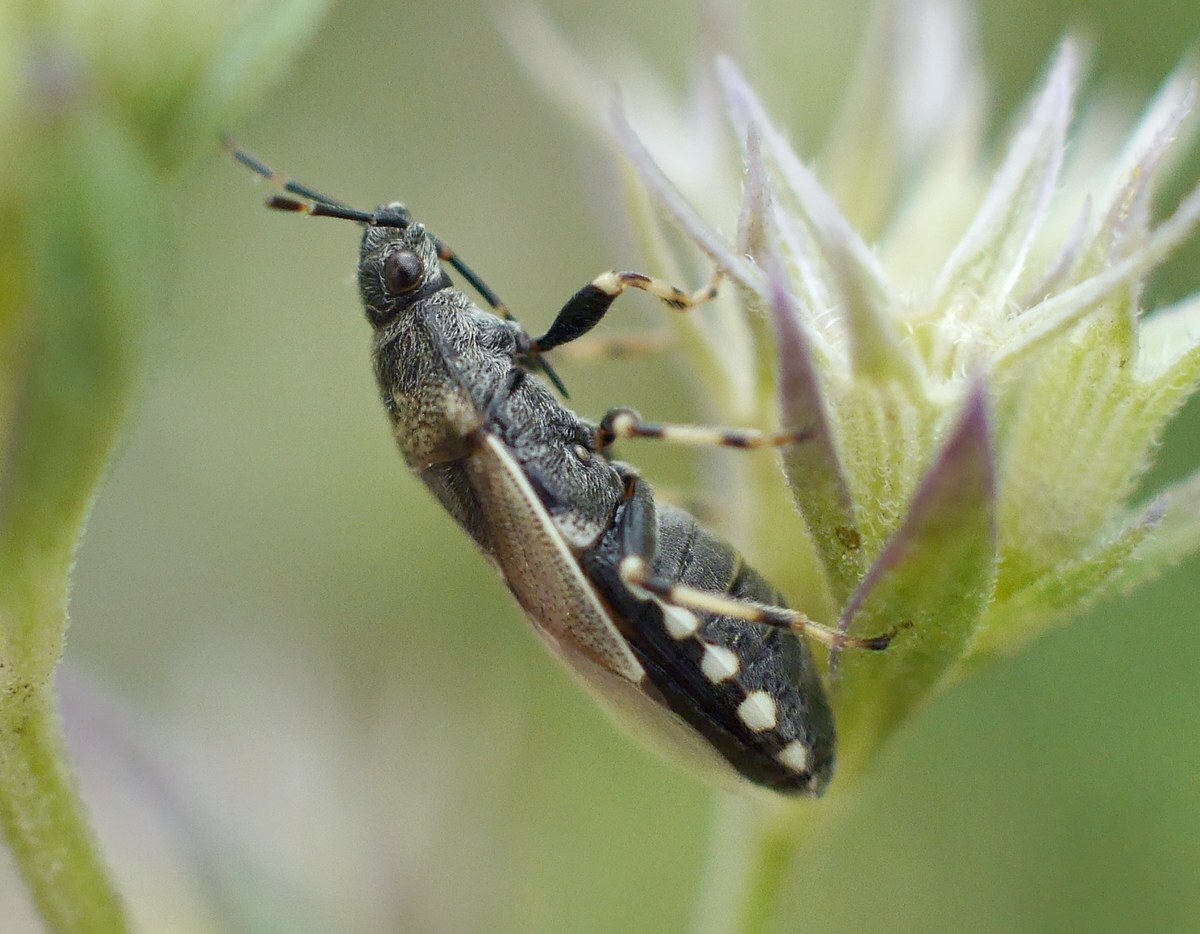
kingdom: Animalia
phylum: Arthropoda
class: Insecta
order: Hemiptera
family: Heterogastridae
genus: Heterogaster
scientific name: Heterogaster cathariae
